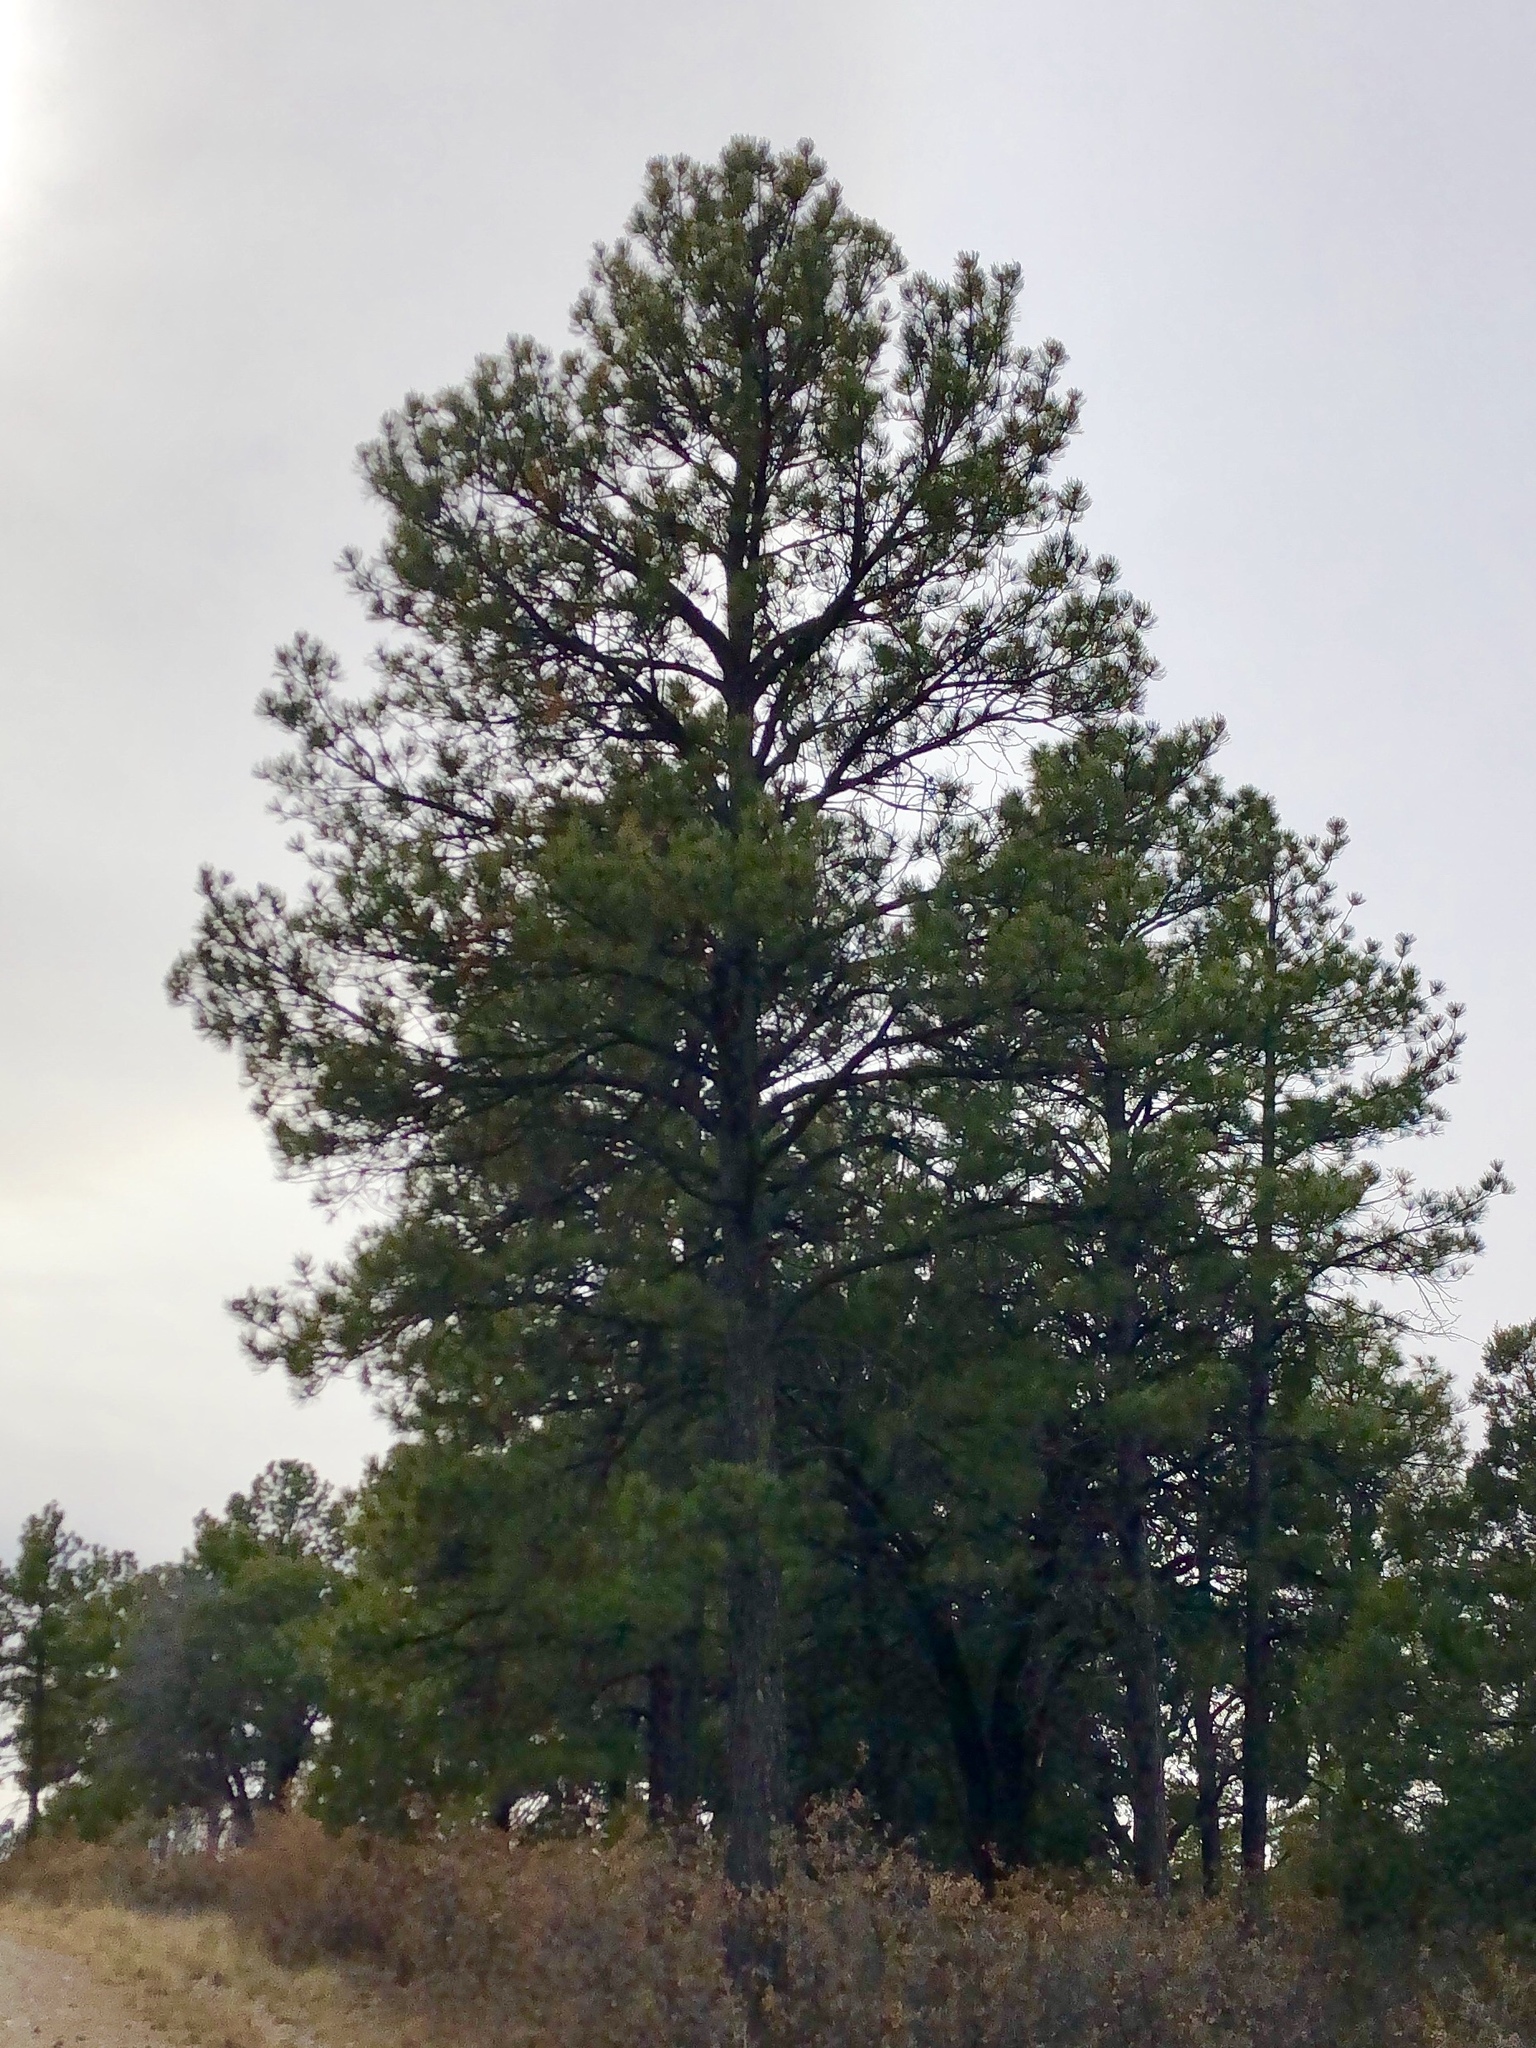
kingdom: Plantae
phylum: Tracheophyta
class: Pinopsida
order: Pinales
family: Pinaceae
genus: Pinus
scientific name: Pinus ponderosa
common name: Western yellow-pine
